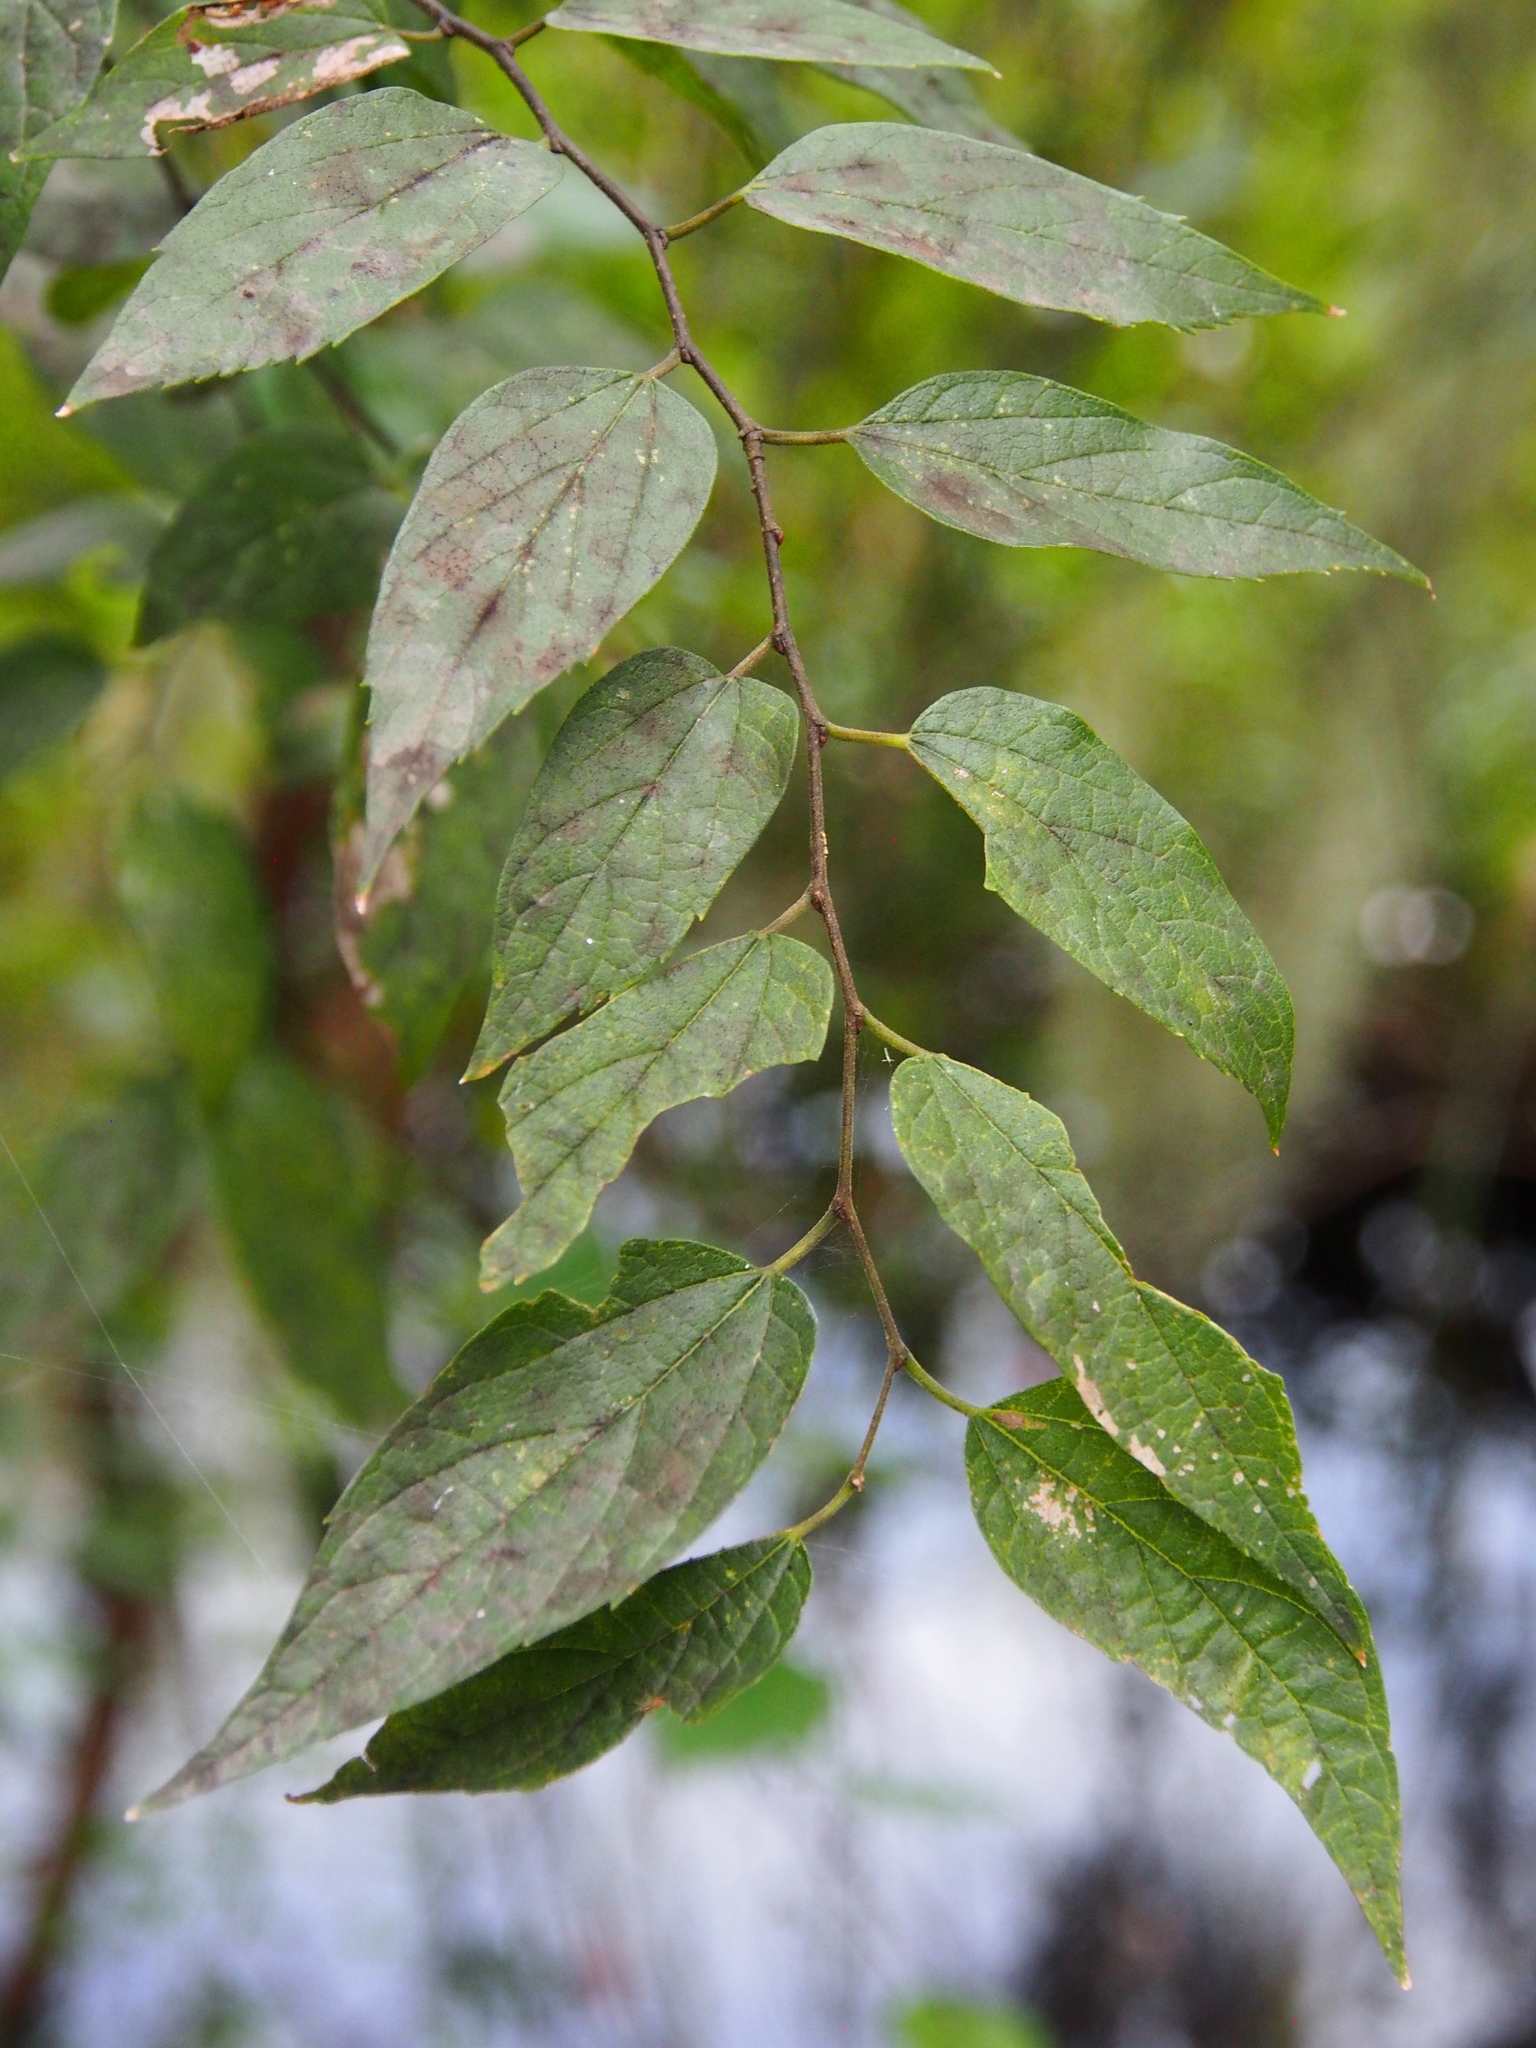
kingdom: Plantae
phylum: Tracheophyta
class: Magnoliopsida
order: Rosales
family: Cannabaceae
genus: Celtis
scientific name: Celtis laevigata
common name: Sugarberry
